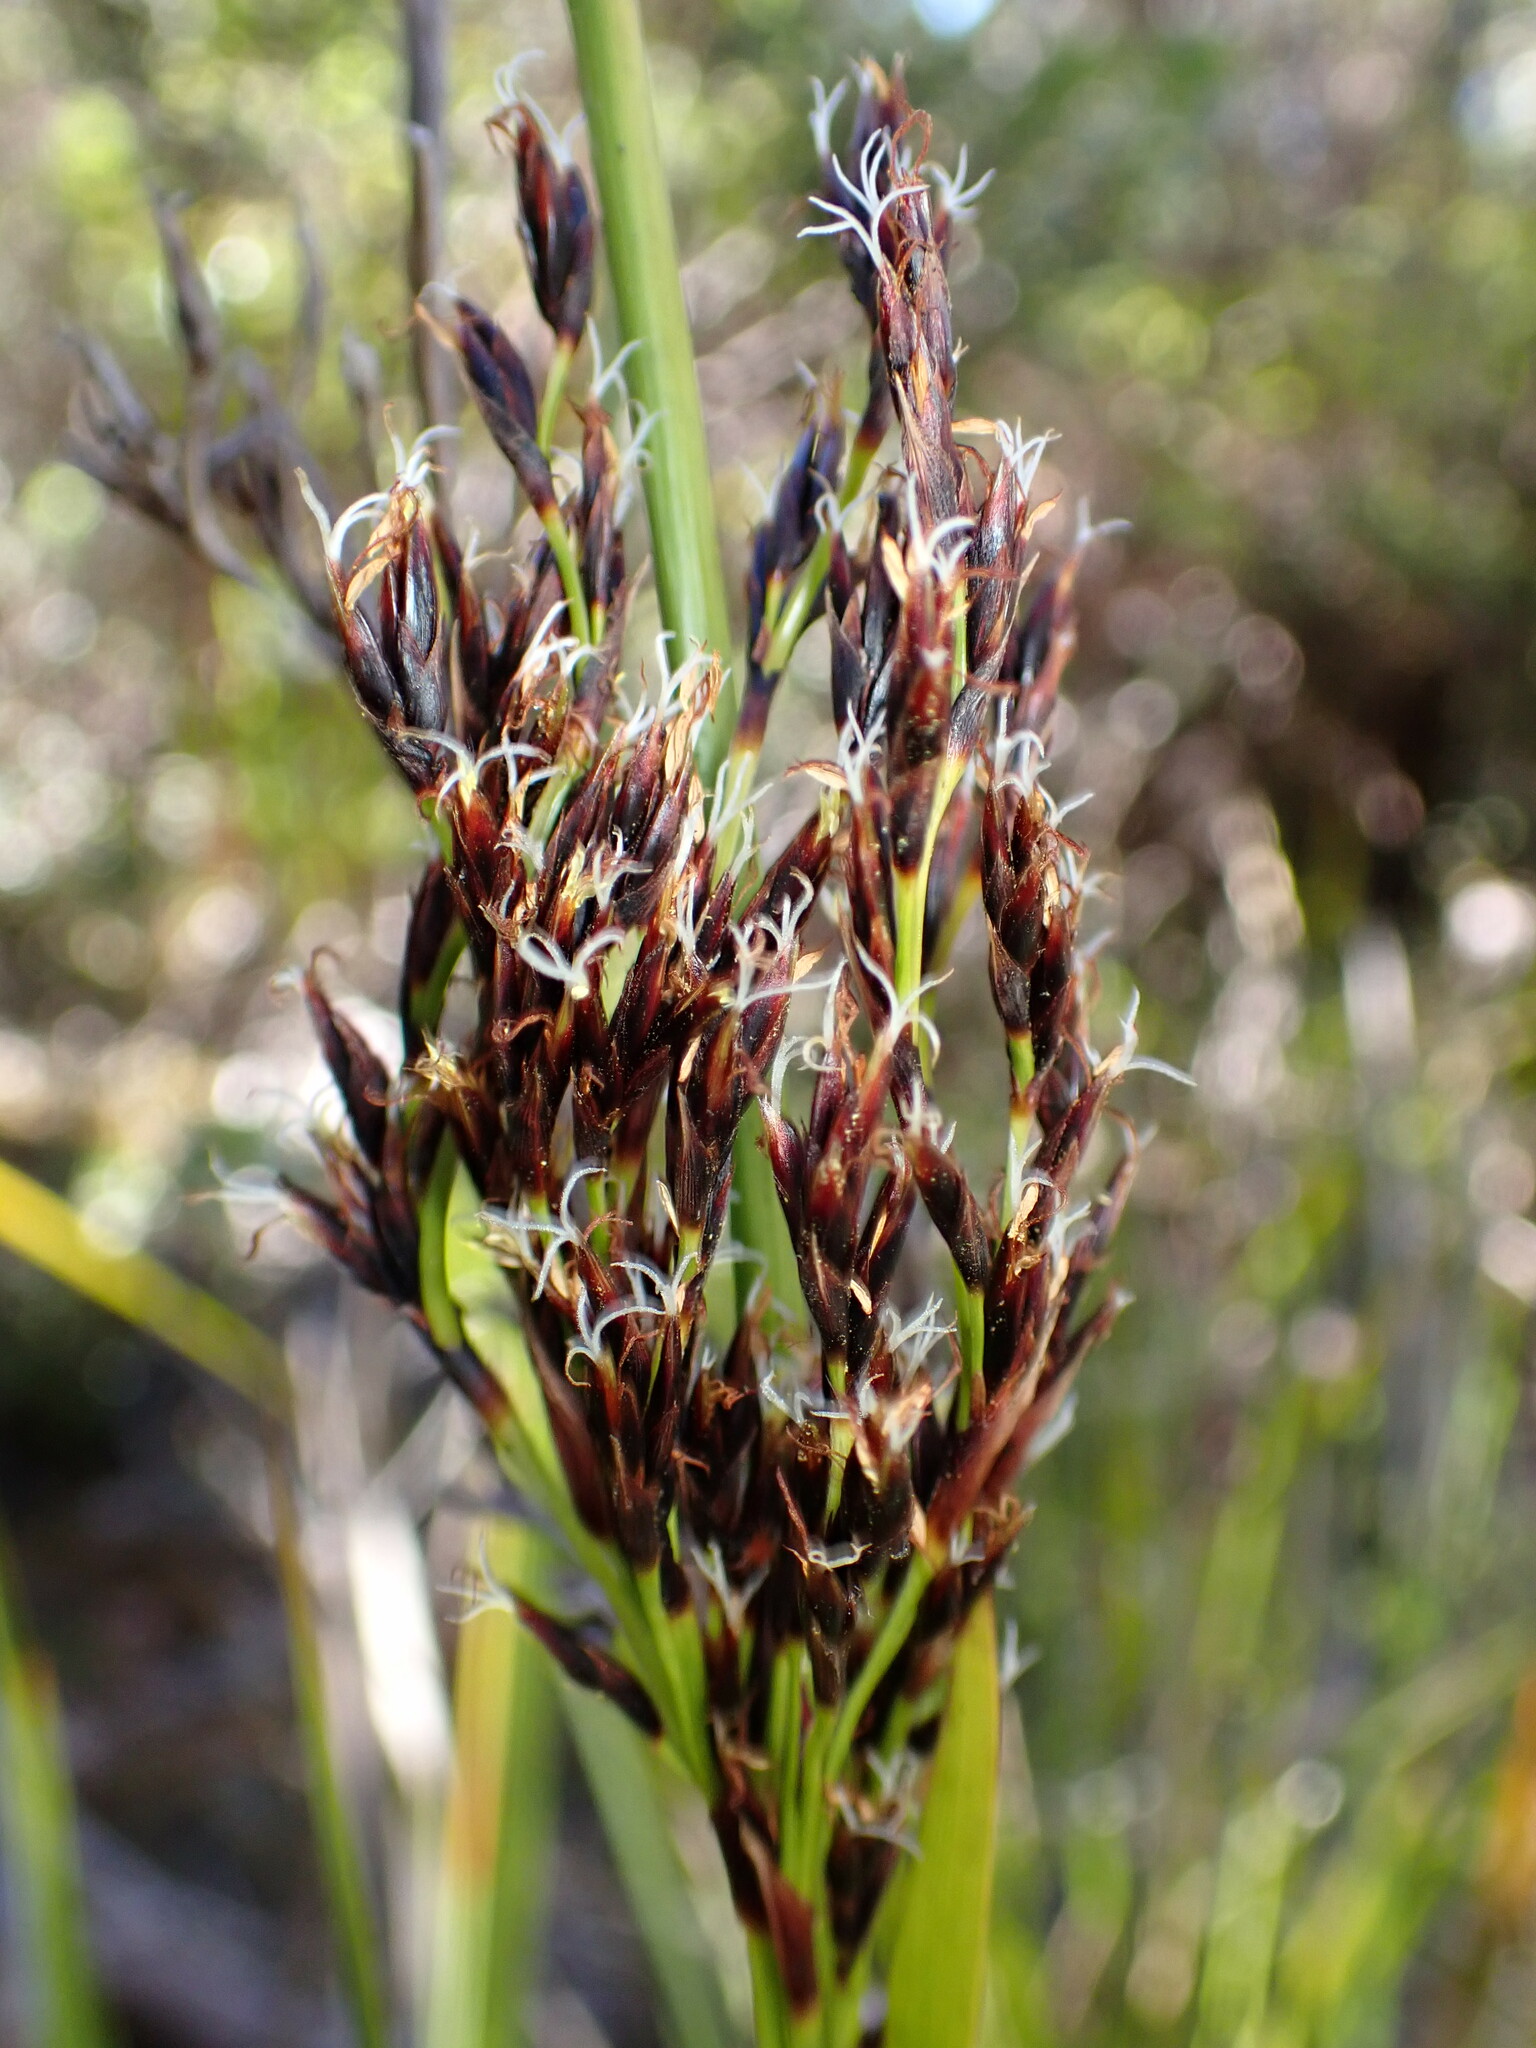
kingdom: Plantae
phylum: Tracheophyta
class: Liliopsida
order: Poales
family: Cyperaceae
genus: Machaerina
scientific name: Machaerina angustifolia
